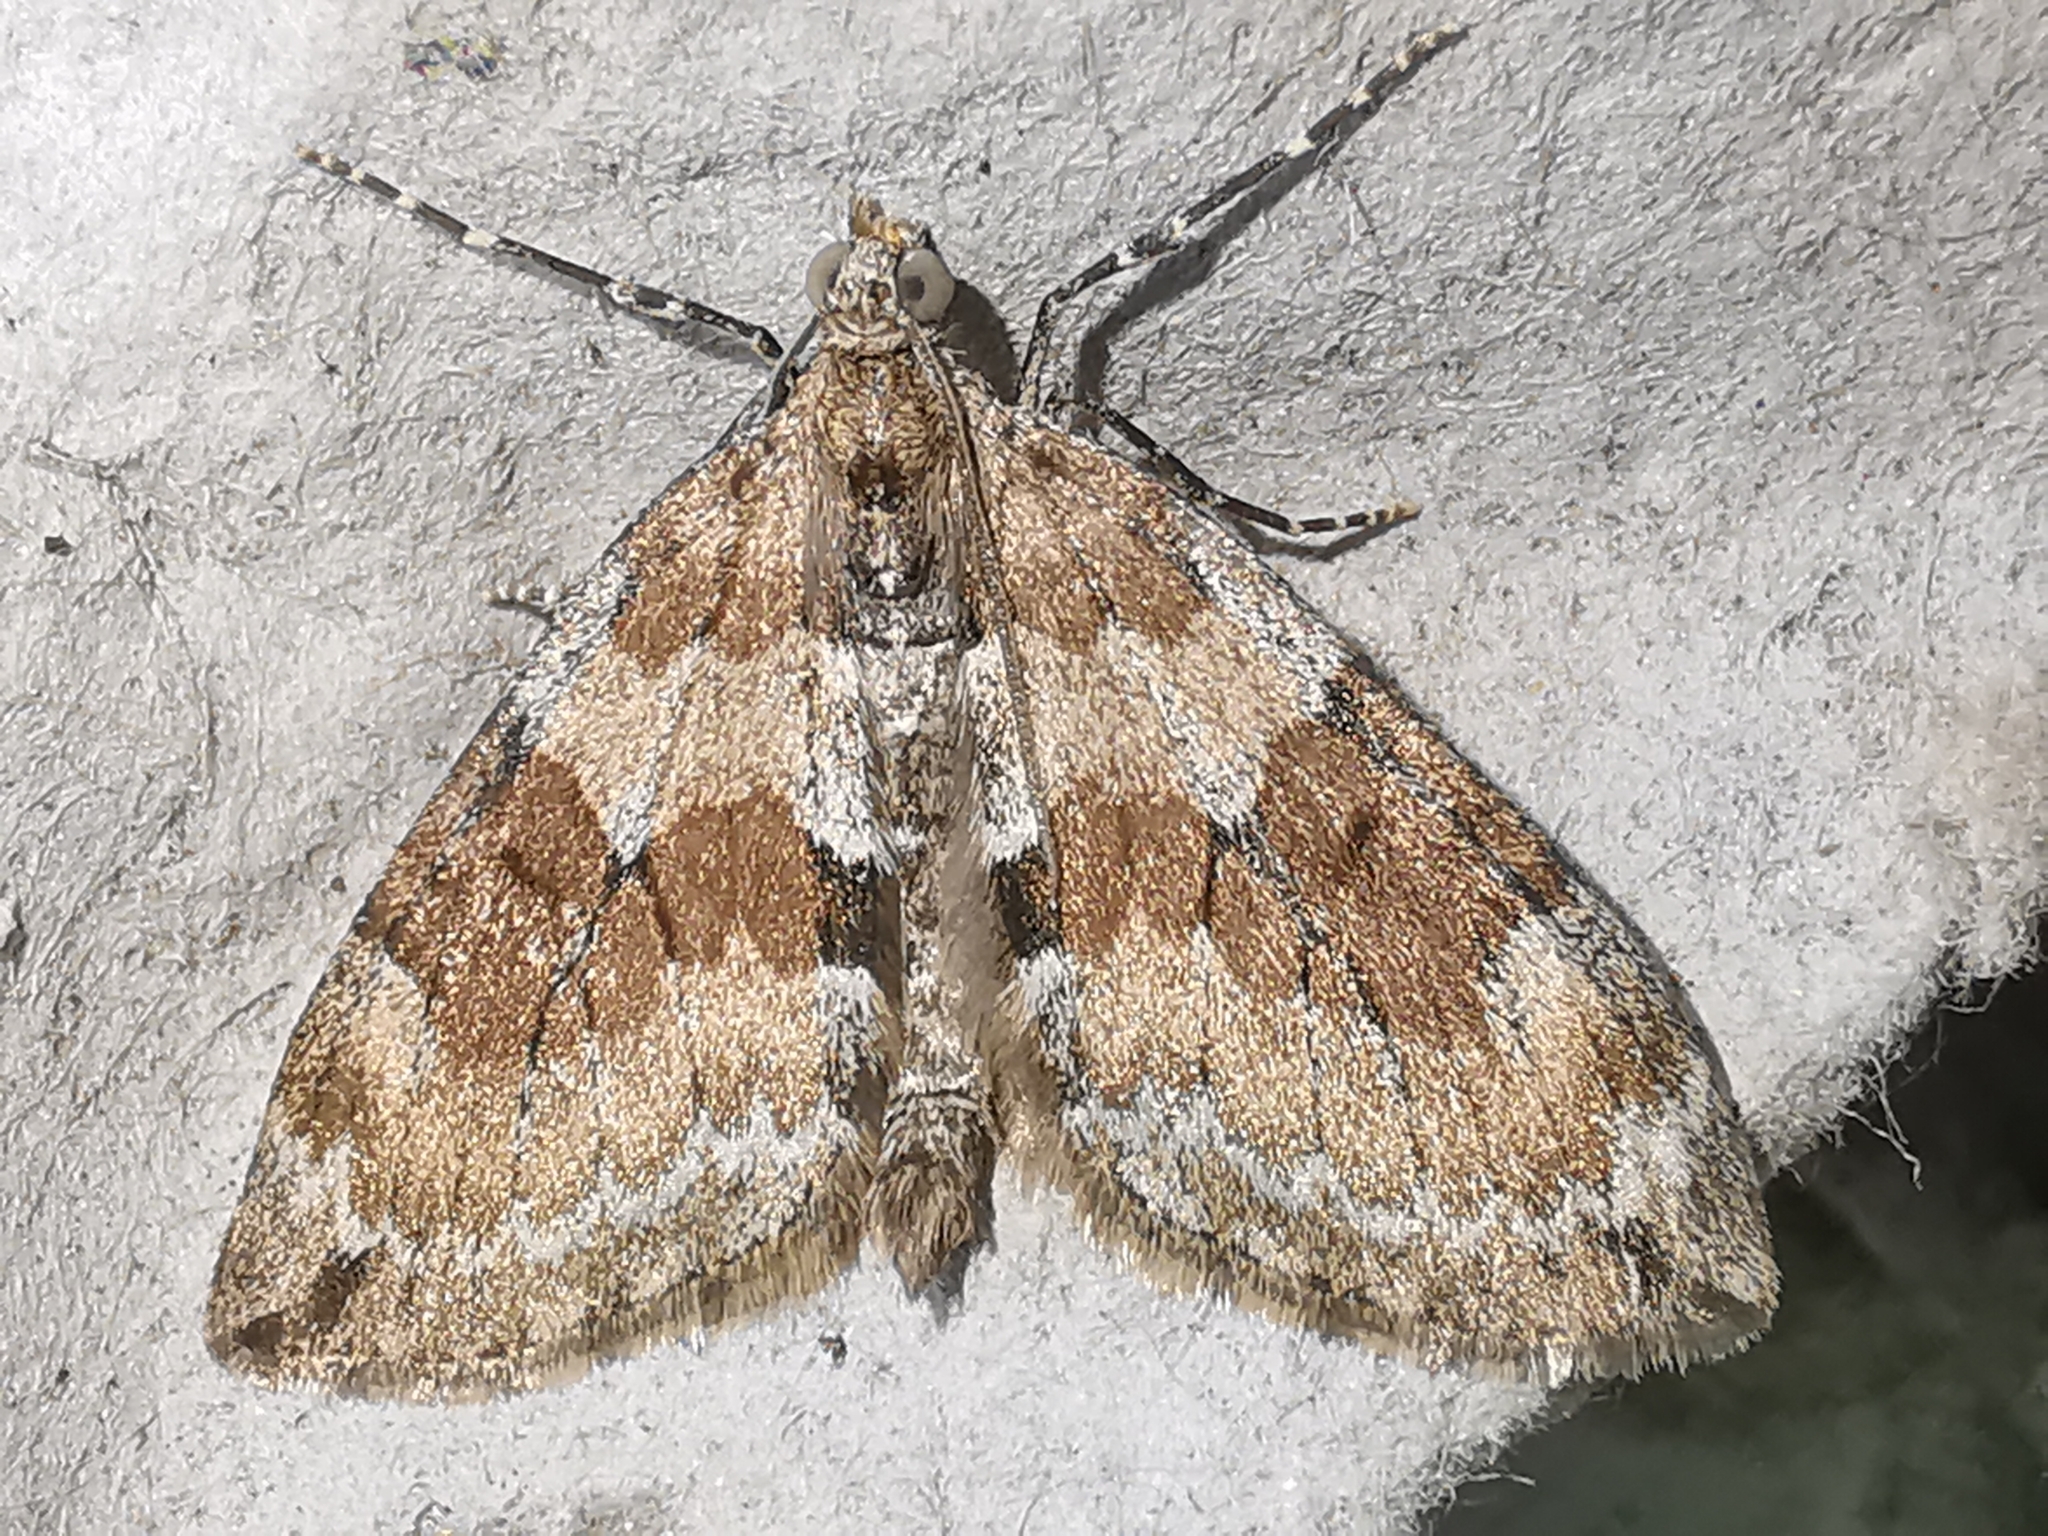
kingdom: Animalia
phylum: Arthropoda
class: Insecta
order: Lepidoptera
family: Geometridae
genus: Thera
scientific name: Thera obeliscata
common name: Grey pine carpet
